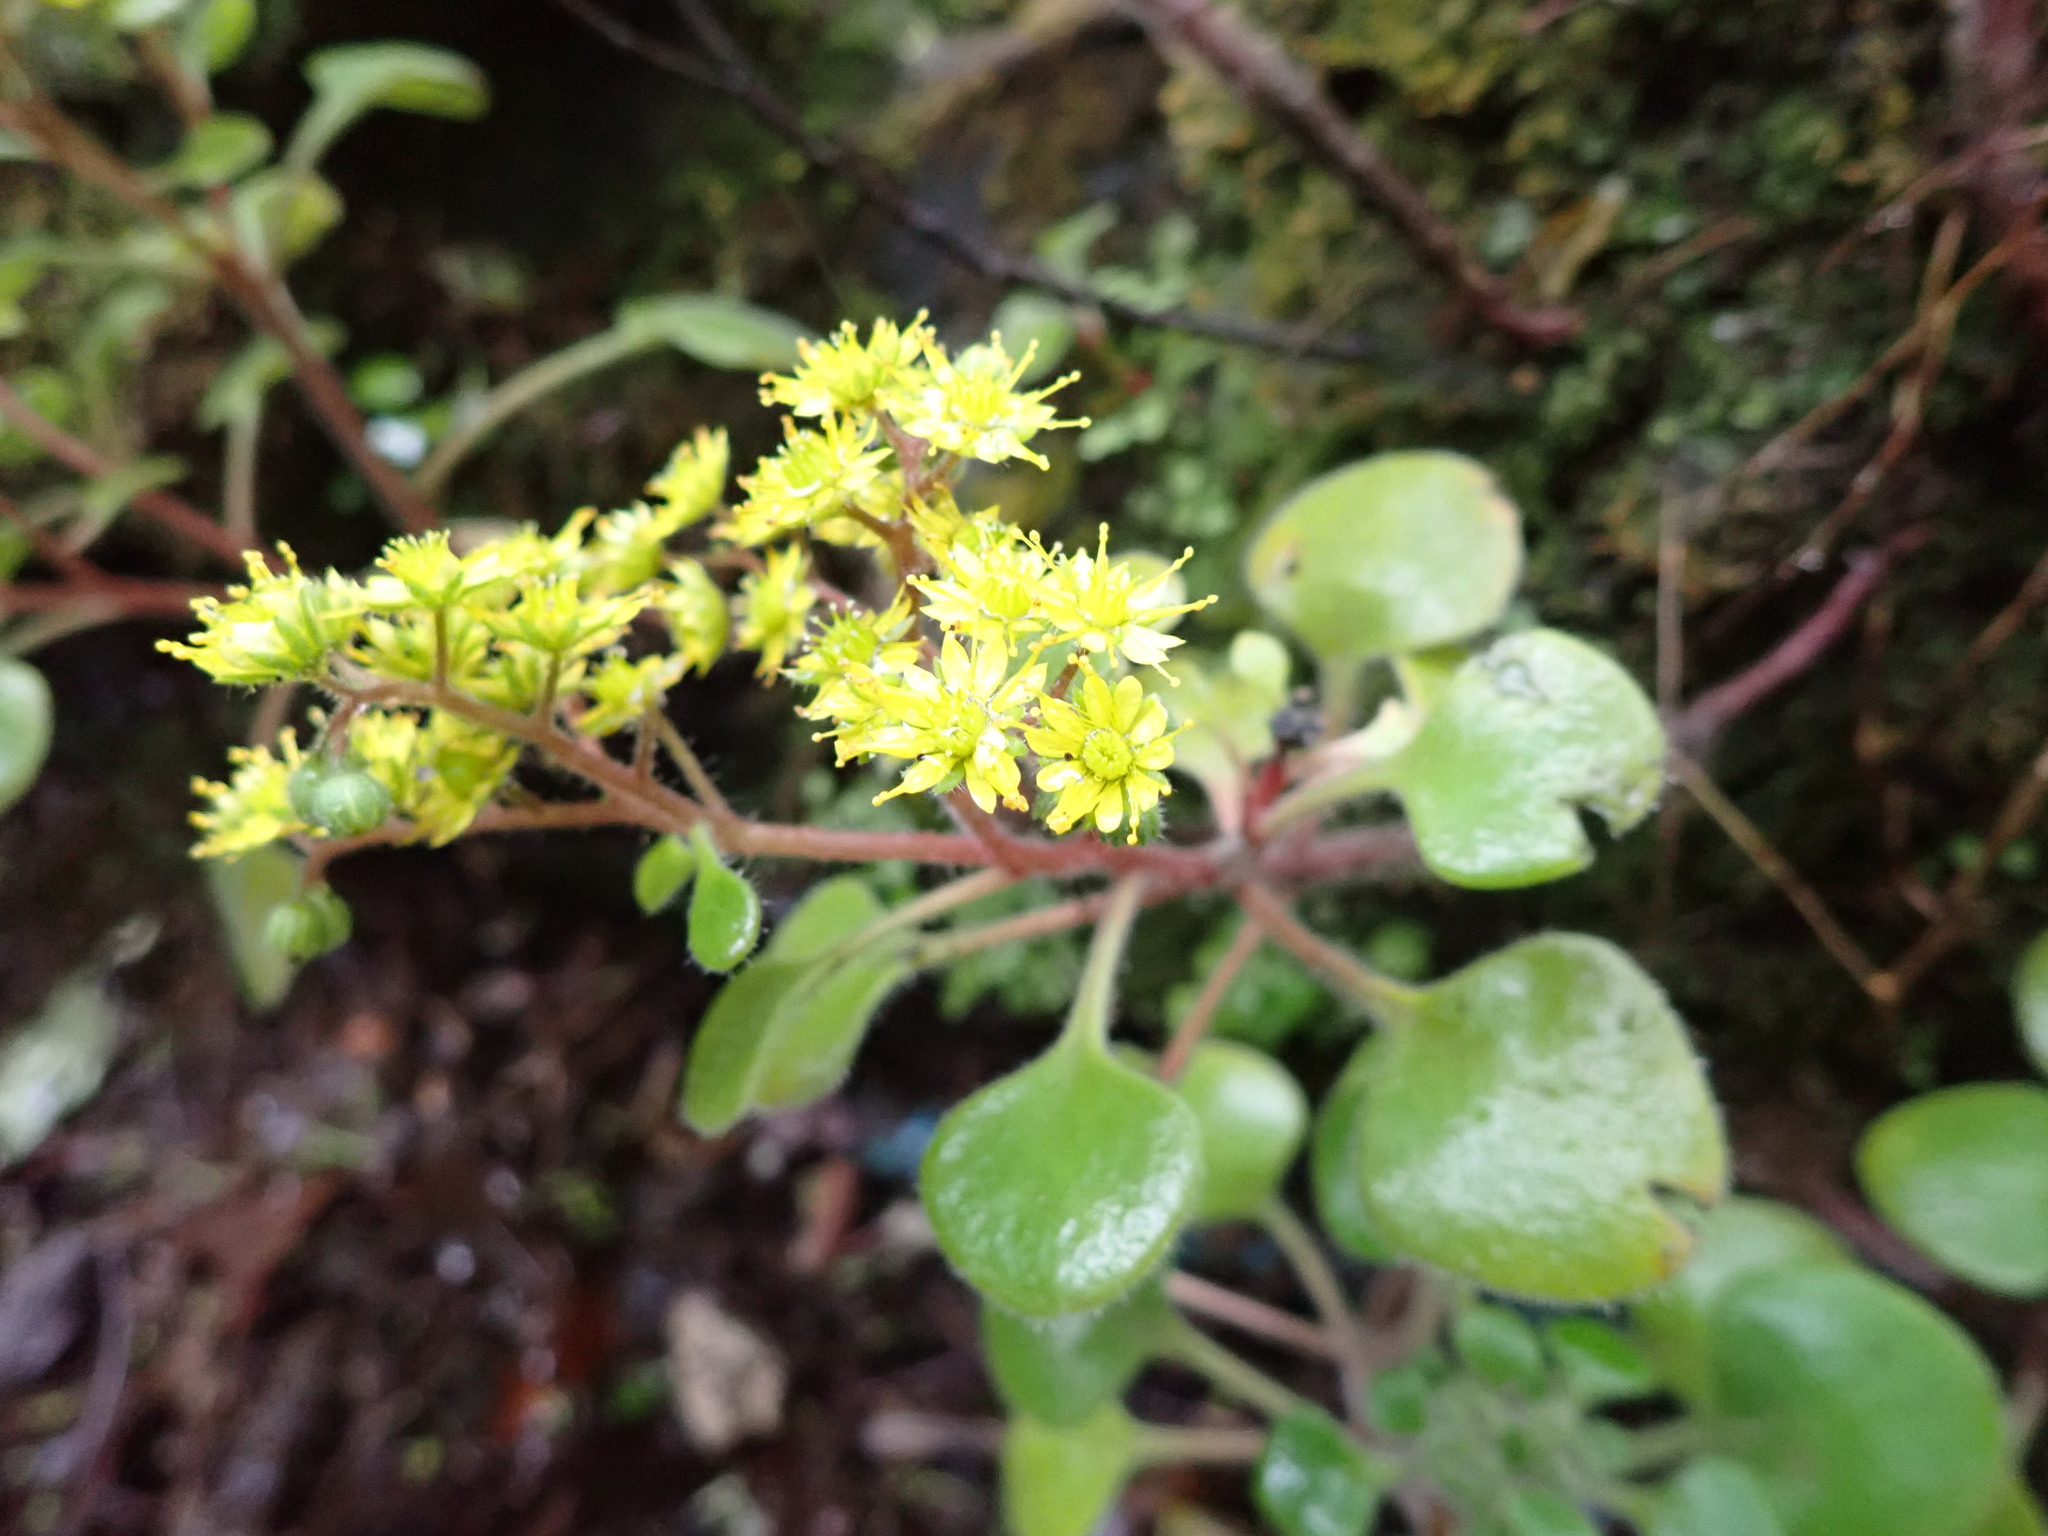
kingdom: Plantae
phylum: Tracheophyta
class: Magnoliopsida
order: Saxifragales
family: Crassulaceae
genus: Aichryson
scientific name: Aichryson laxum
